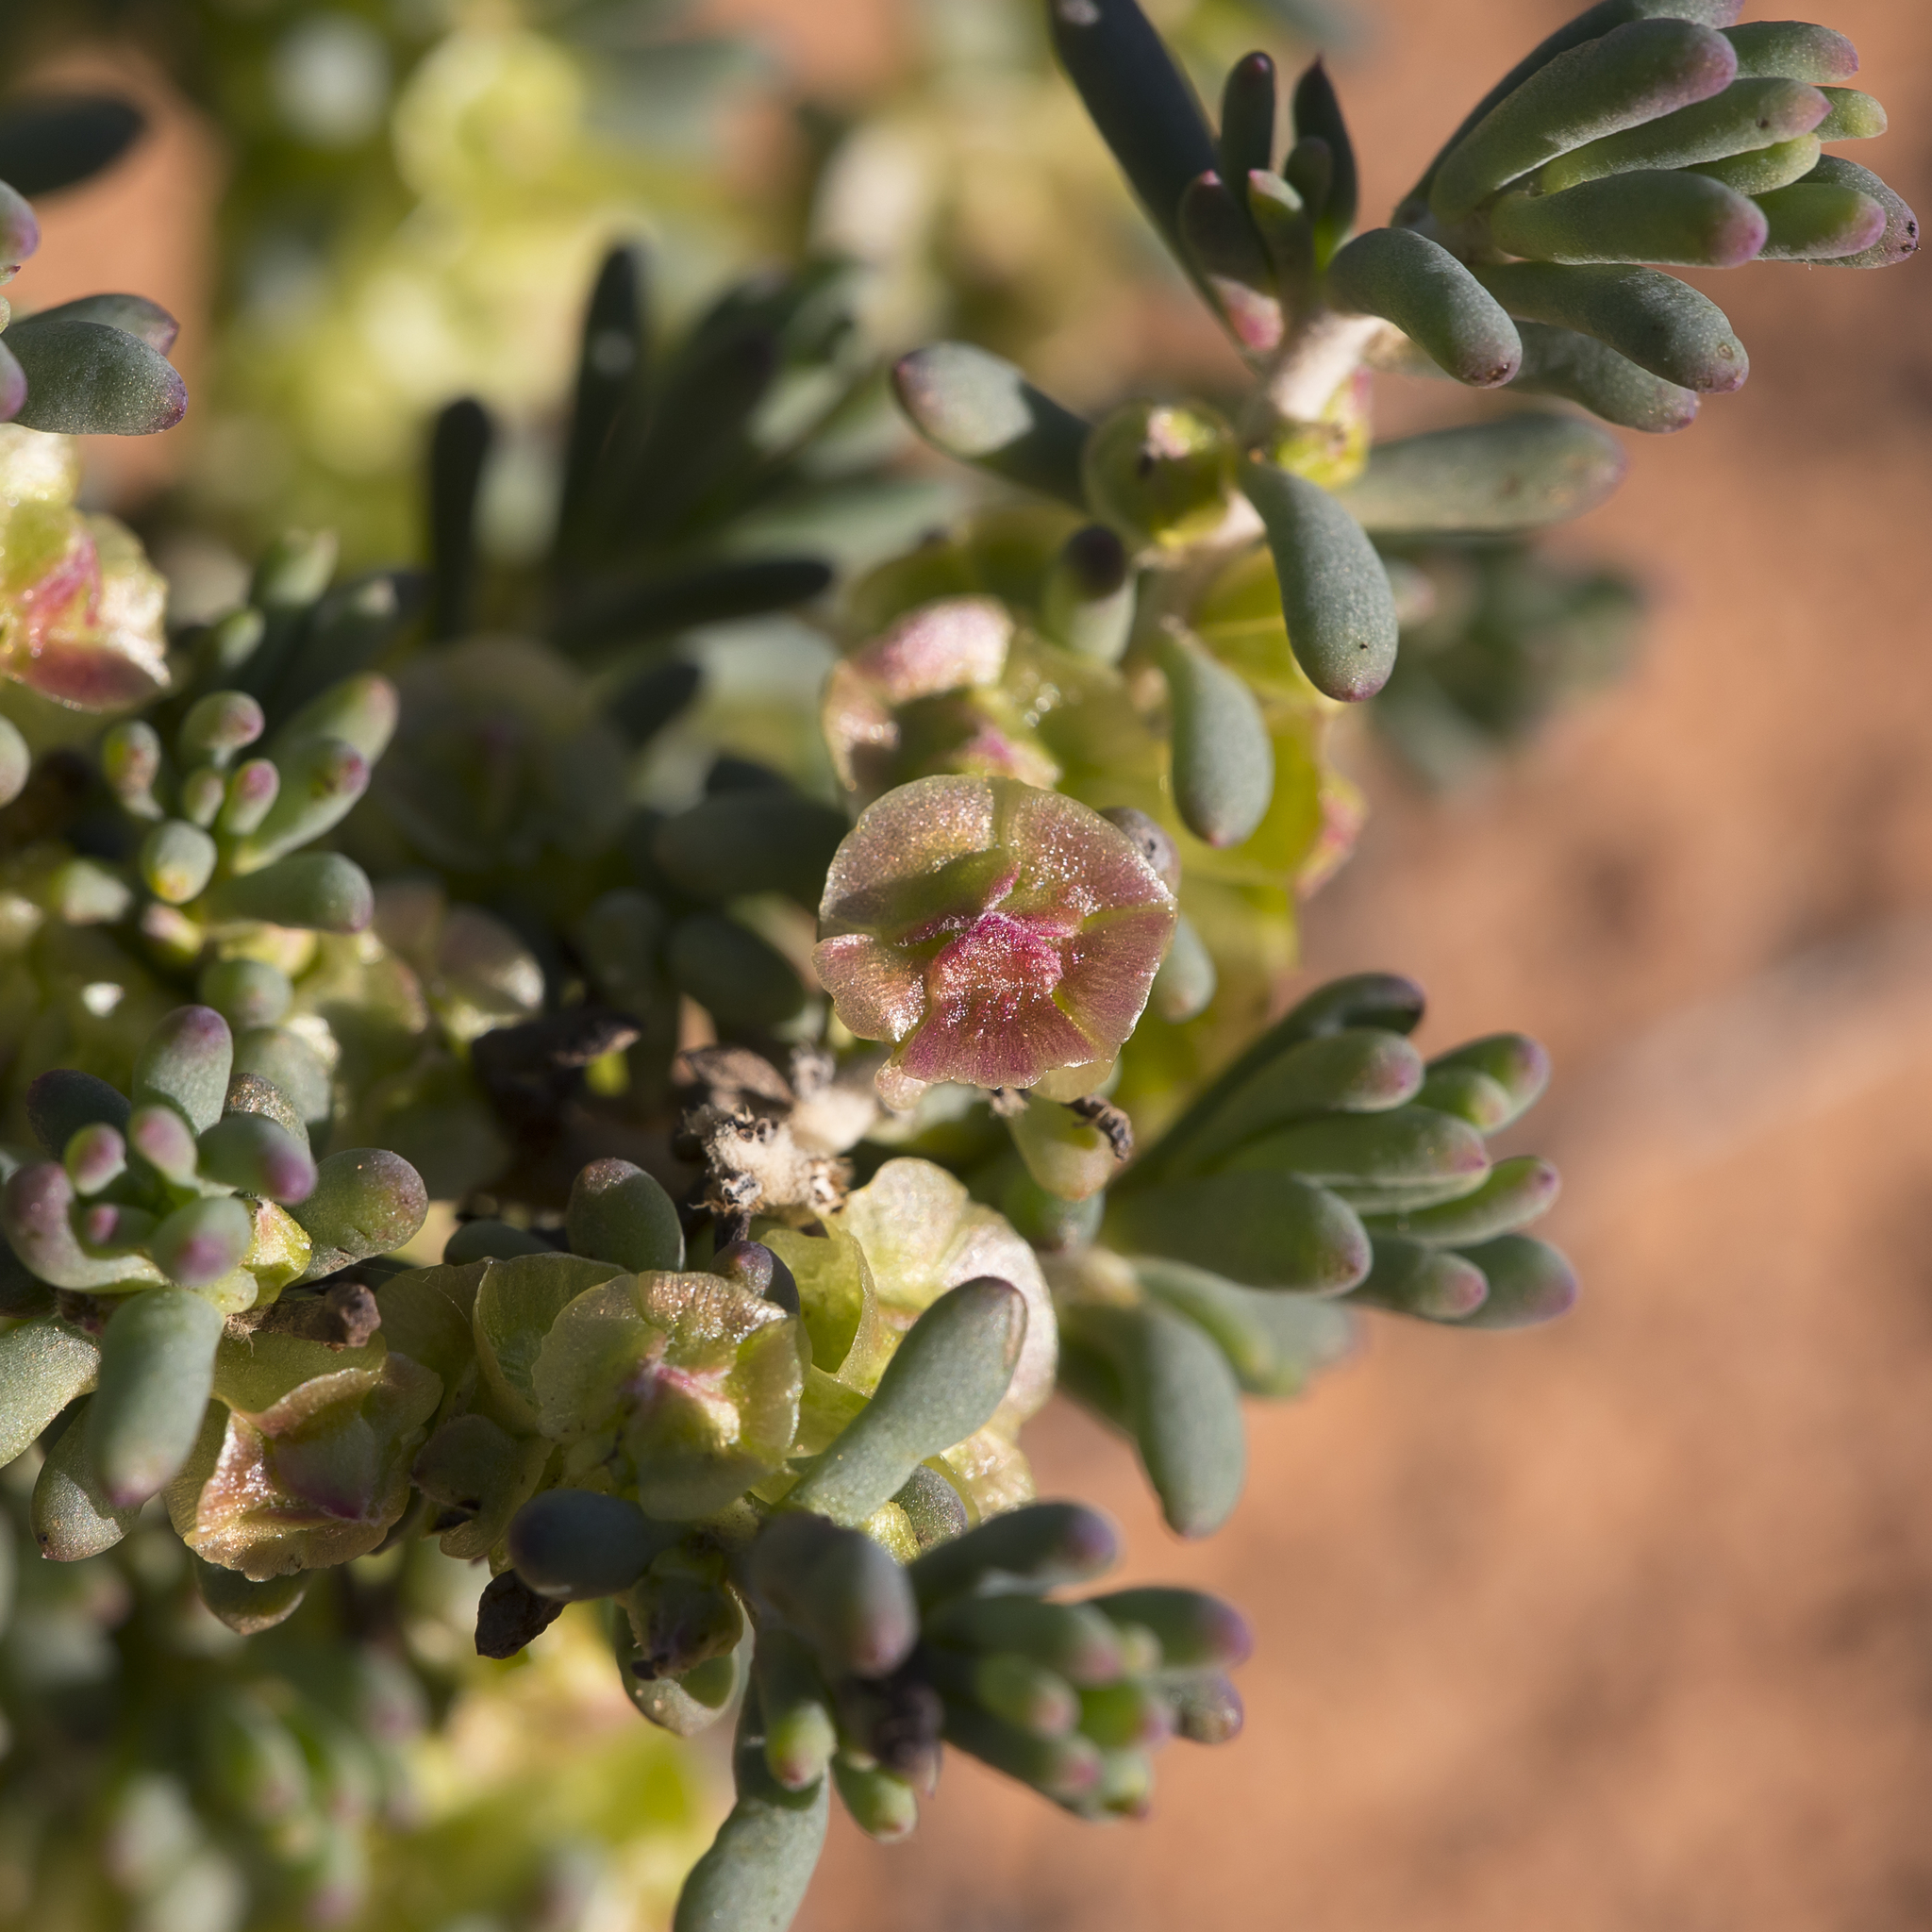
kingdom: Plantae
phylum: Tracheophyta
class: Magnoliopsida
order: Caryophyllales
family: Amaranthaceae
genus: Maireana
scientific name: Maireana erioclada
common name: Rosy bluebush
